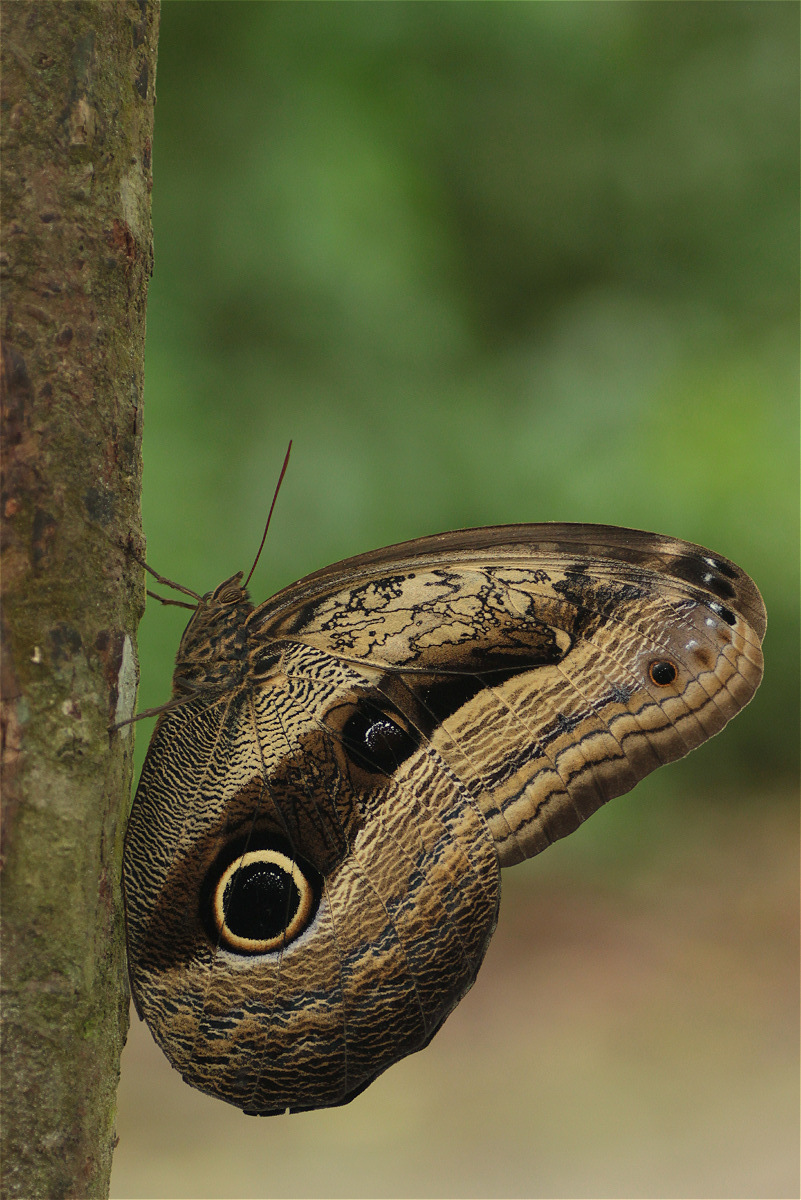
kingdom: Animalia
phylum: Arthropoda
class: Insecta
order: Lepidoptera
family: Nymphalidae
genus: Caligo
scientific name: Caligo placidianus
